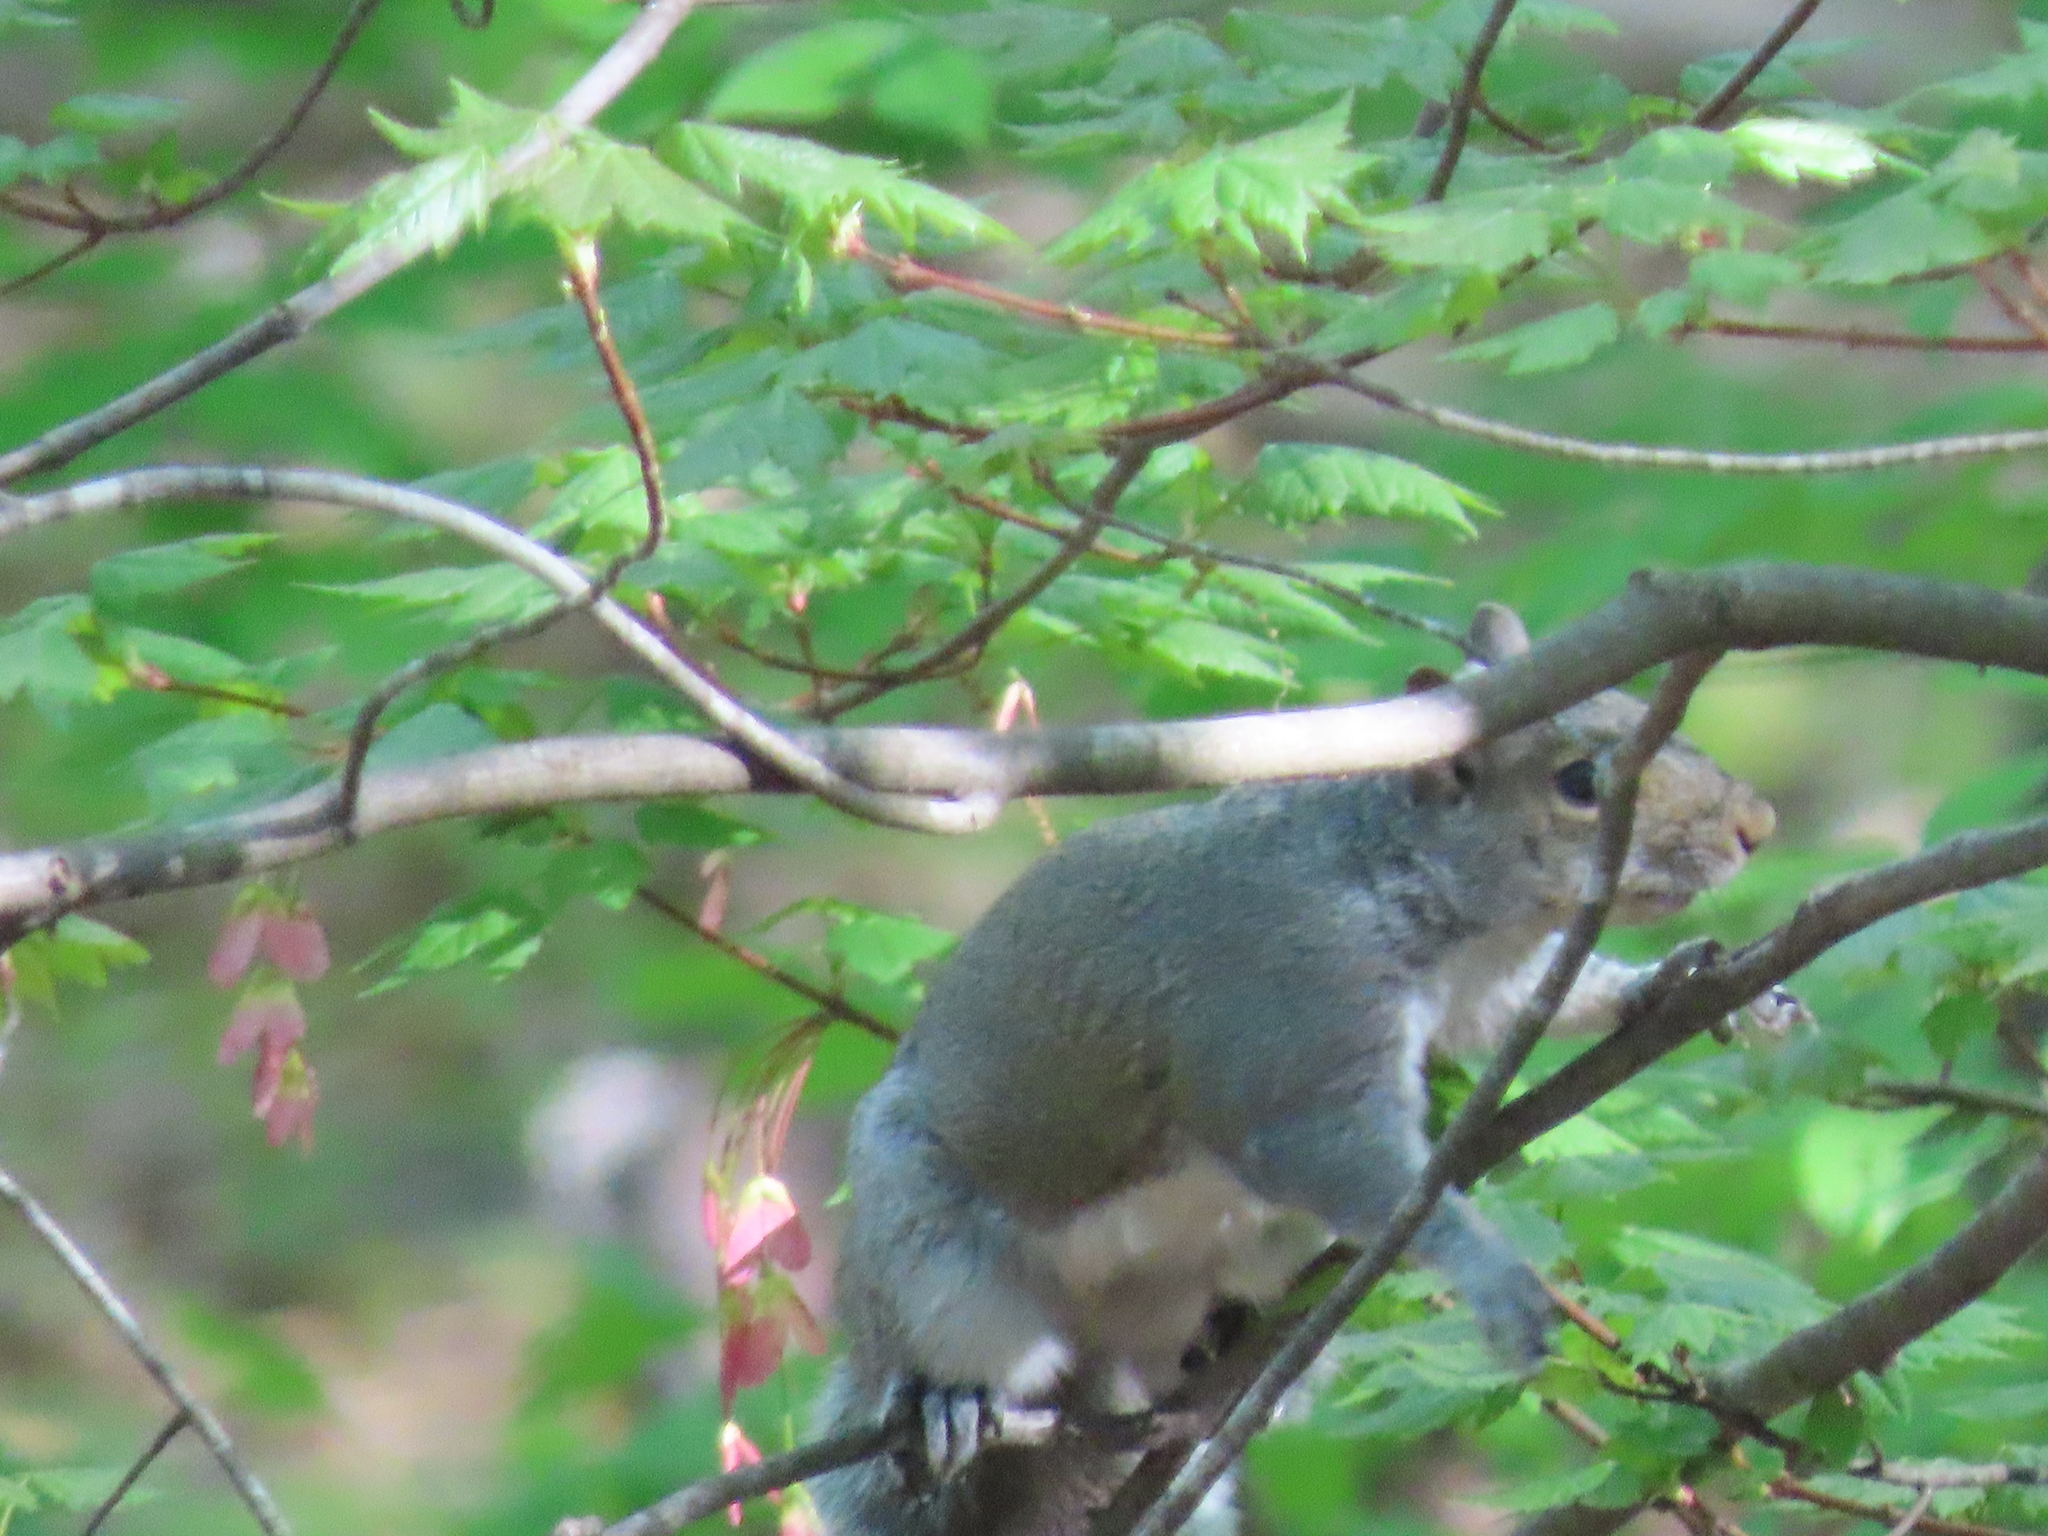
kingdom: Animalia
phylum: Chordata
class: Mammalia
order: Rodentia
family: Sciuridae
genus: Sciurus
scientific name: Sciurus carolinensis
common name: Eastern gray squirrel
